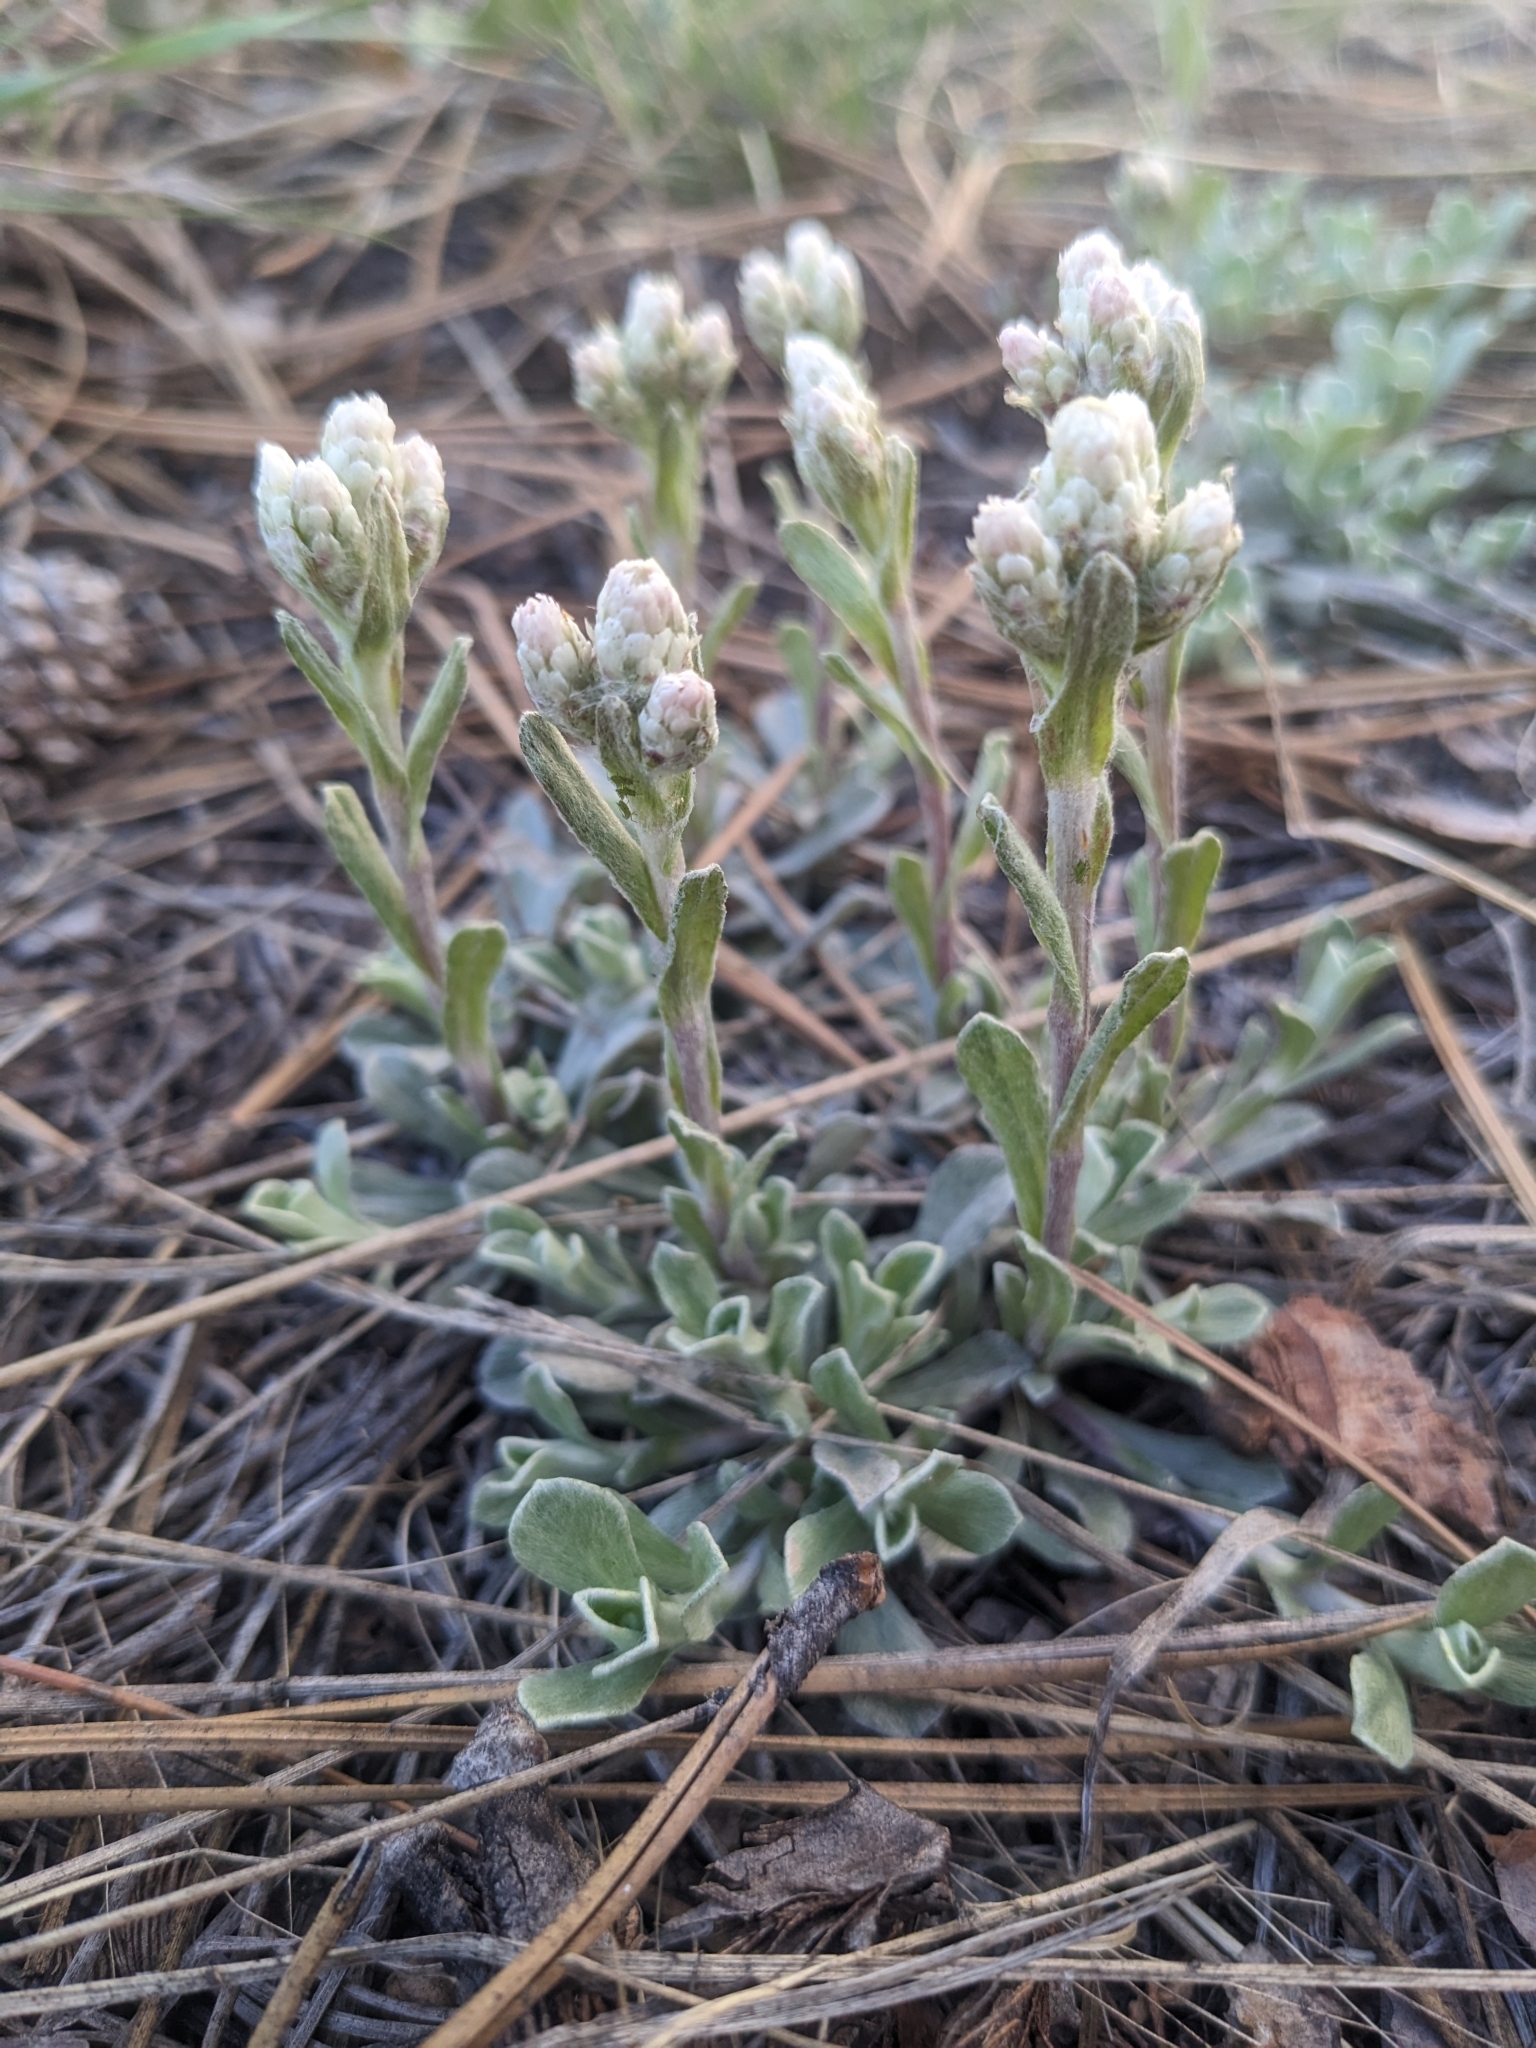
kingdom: Plantae
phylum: Tracheophyta
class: Magnoliopsida
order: Asterales
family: Asteraceae
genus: Antennaria
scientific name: Antennaria parvifolia
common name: Nuttall's pussytoes
